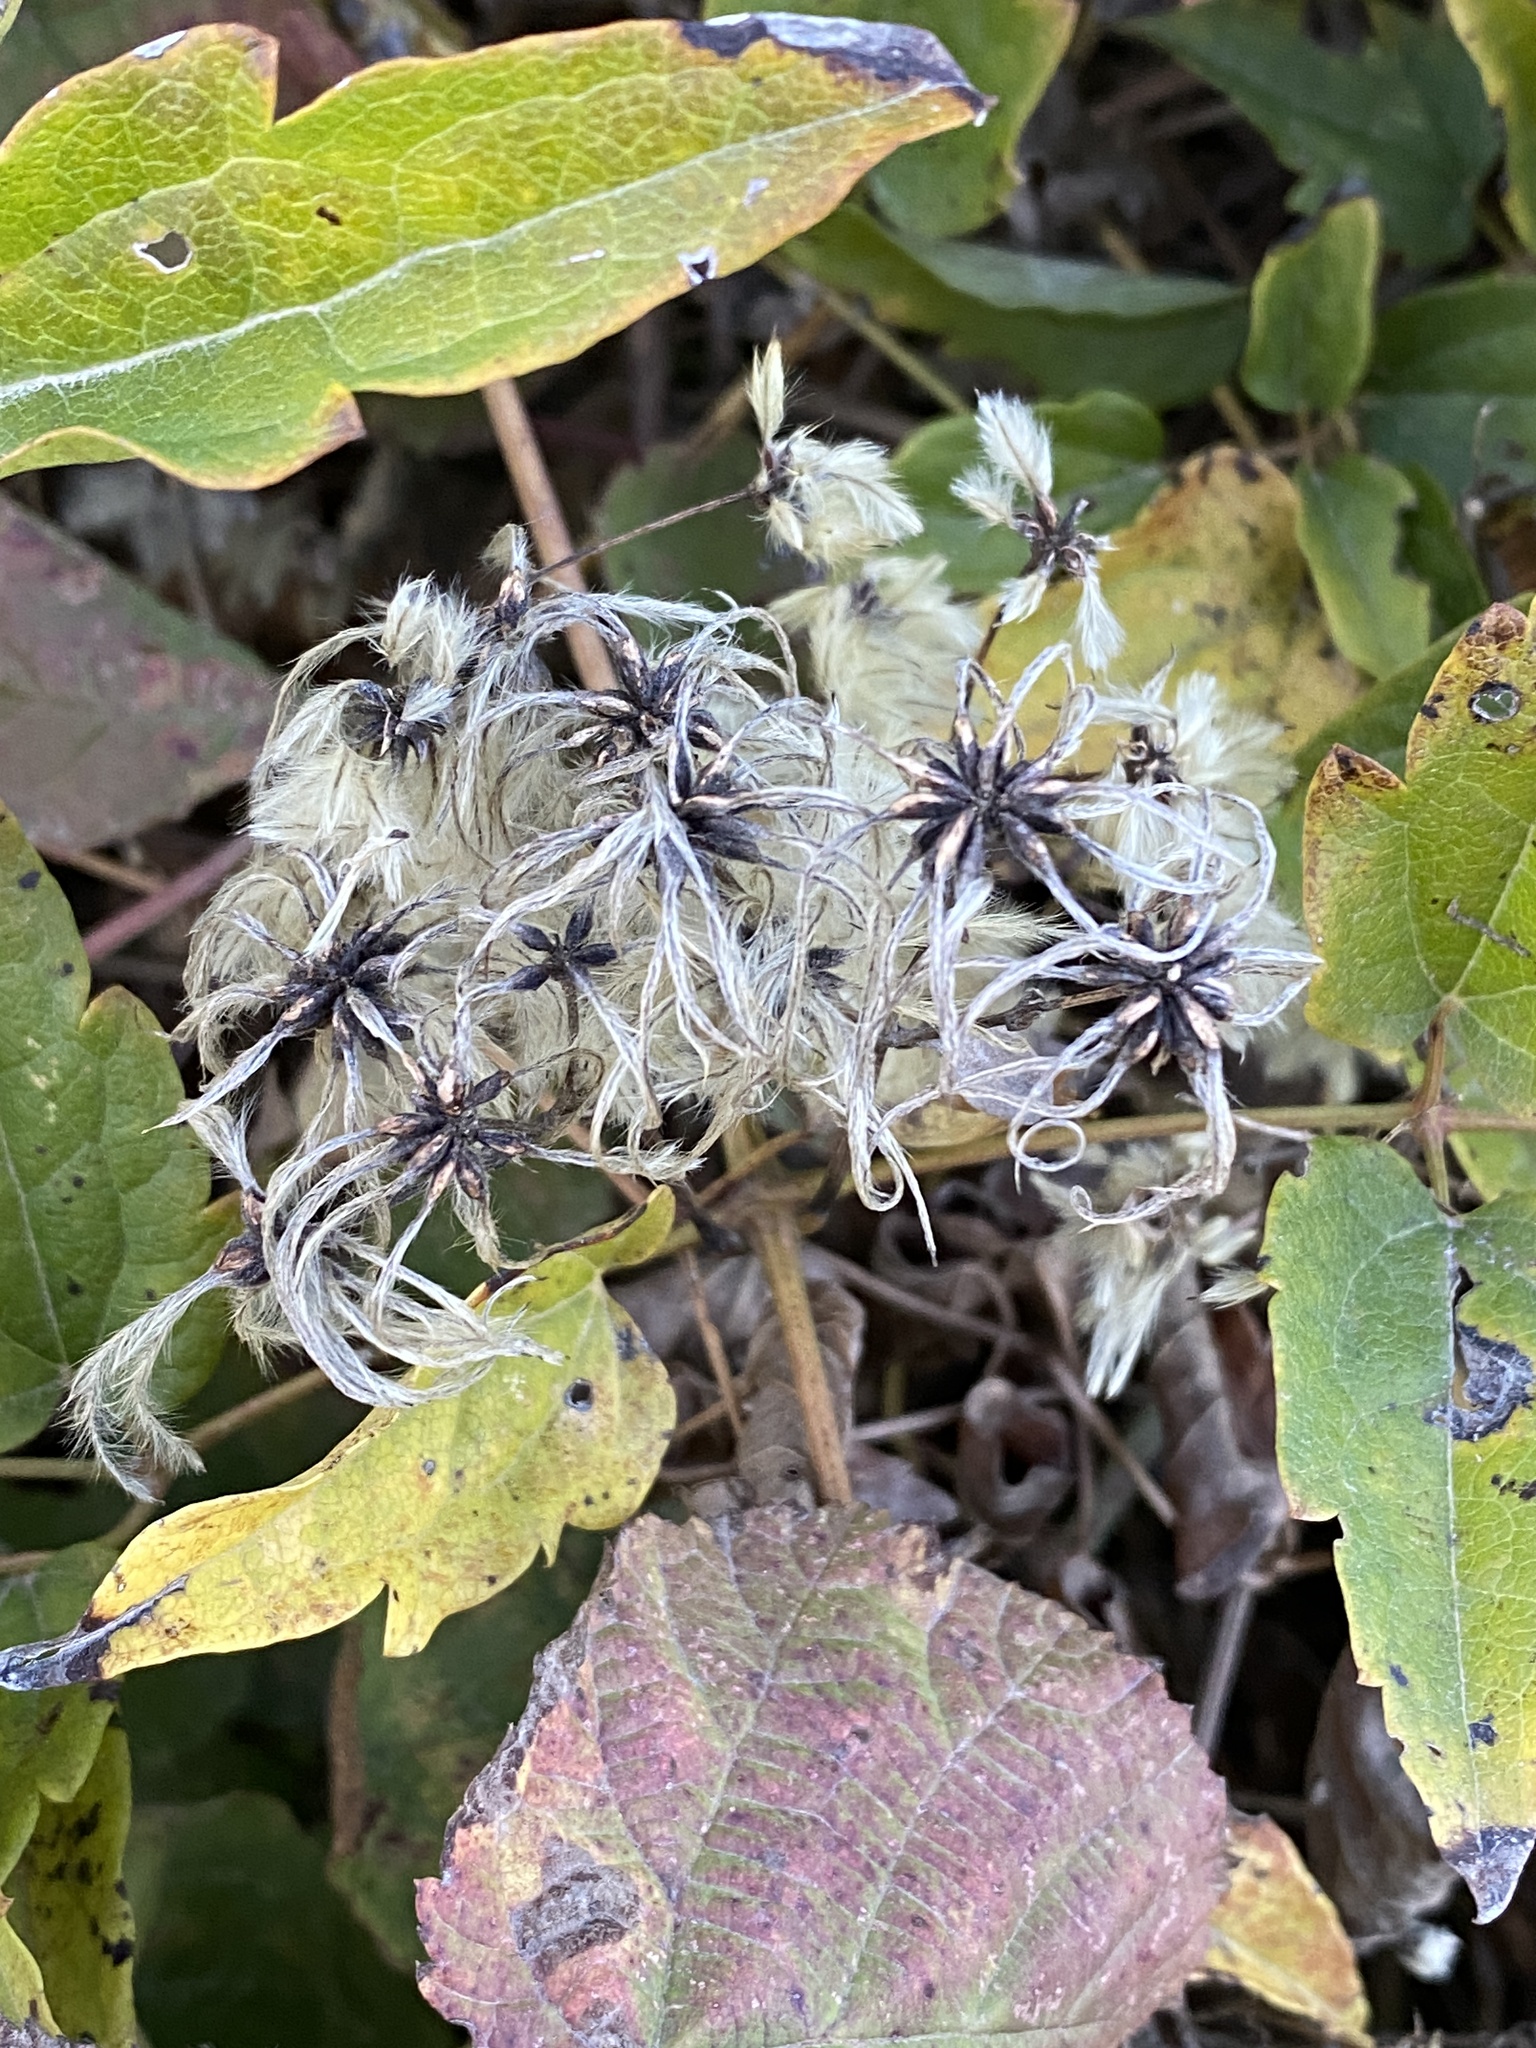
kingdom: Plantae
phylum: Tracheophyta
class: Magnoliopsida
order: Ranunculales
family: Ranunculaceae
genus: Clematis
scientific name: Clematis vitalba
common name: Evergreen clematis
